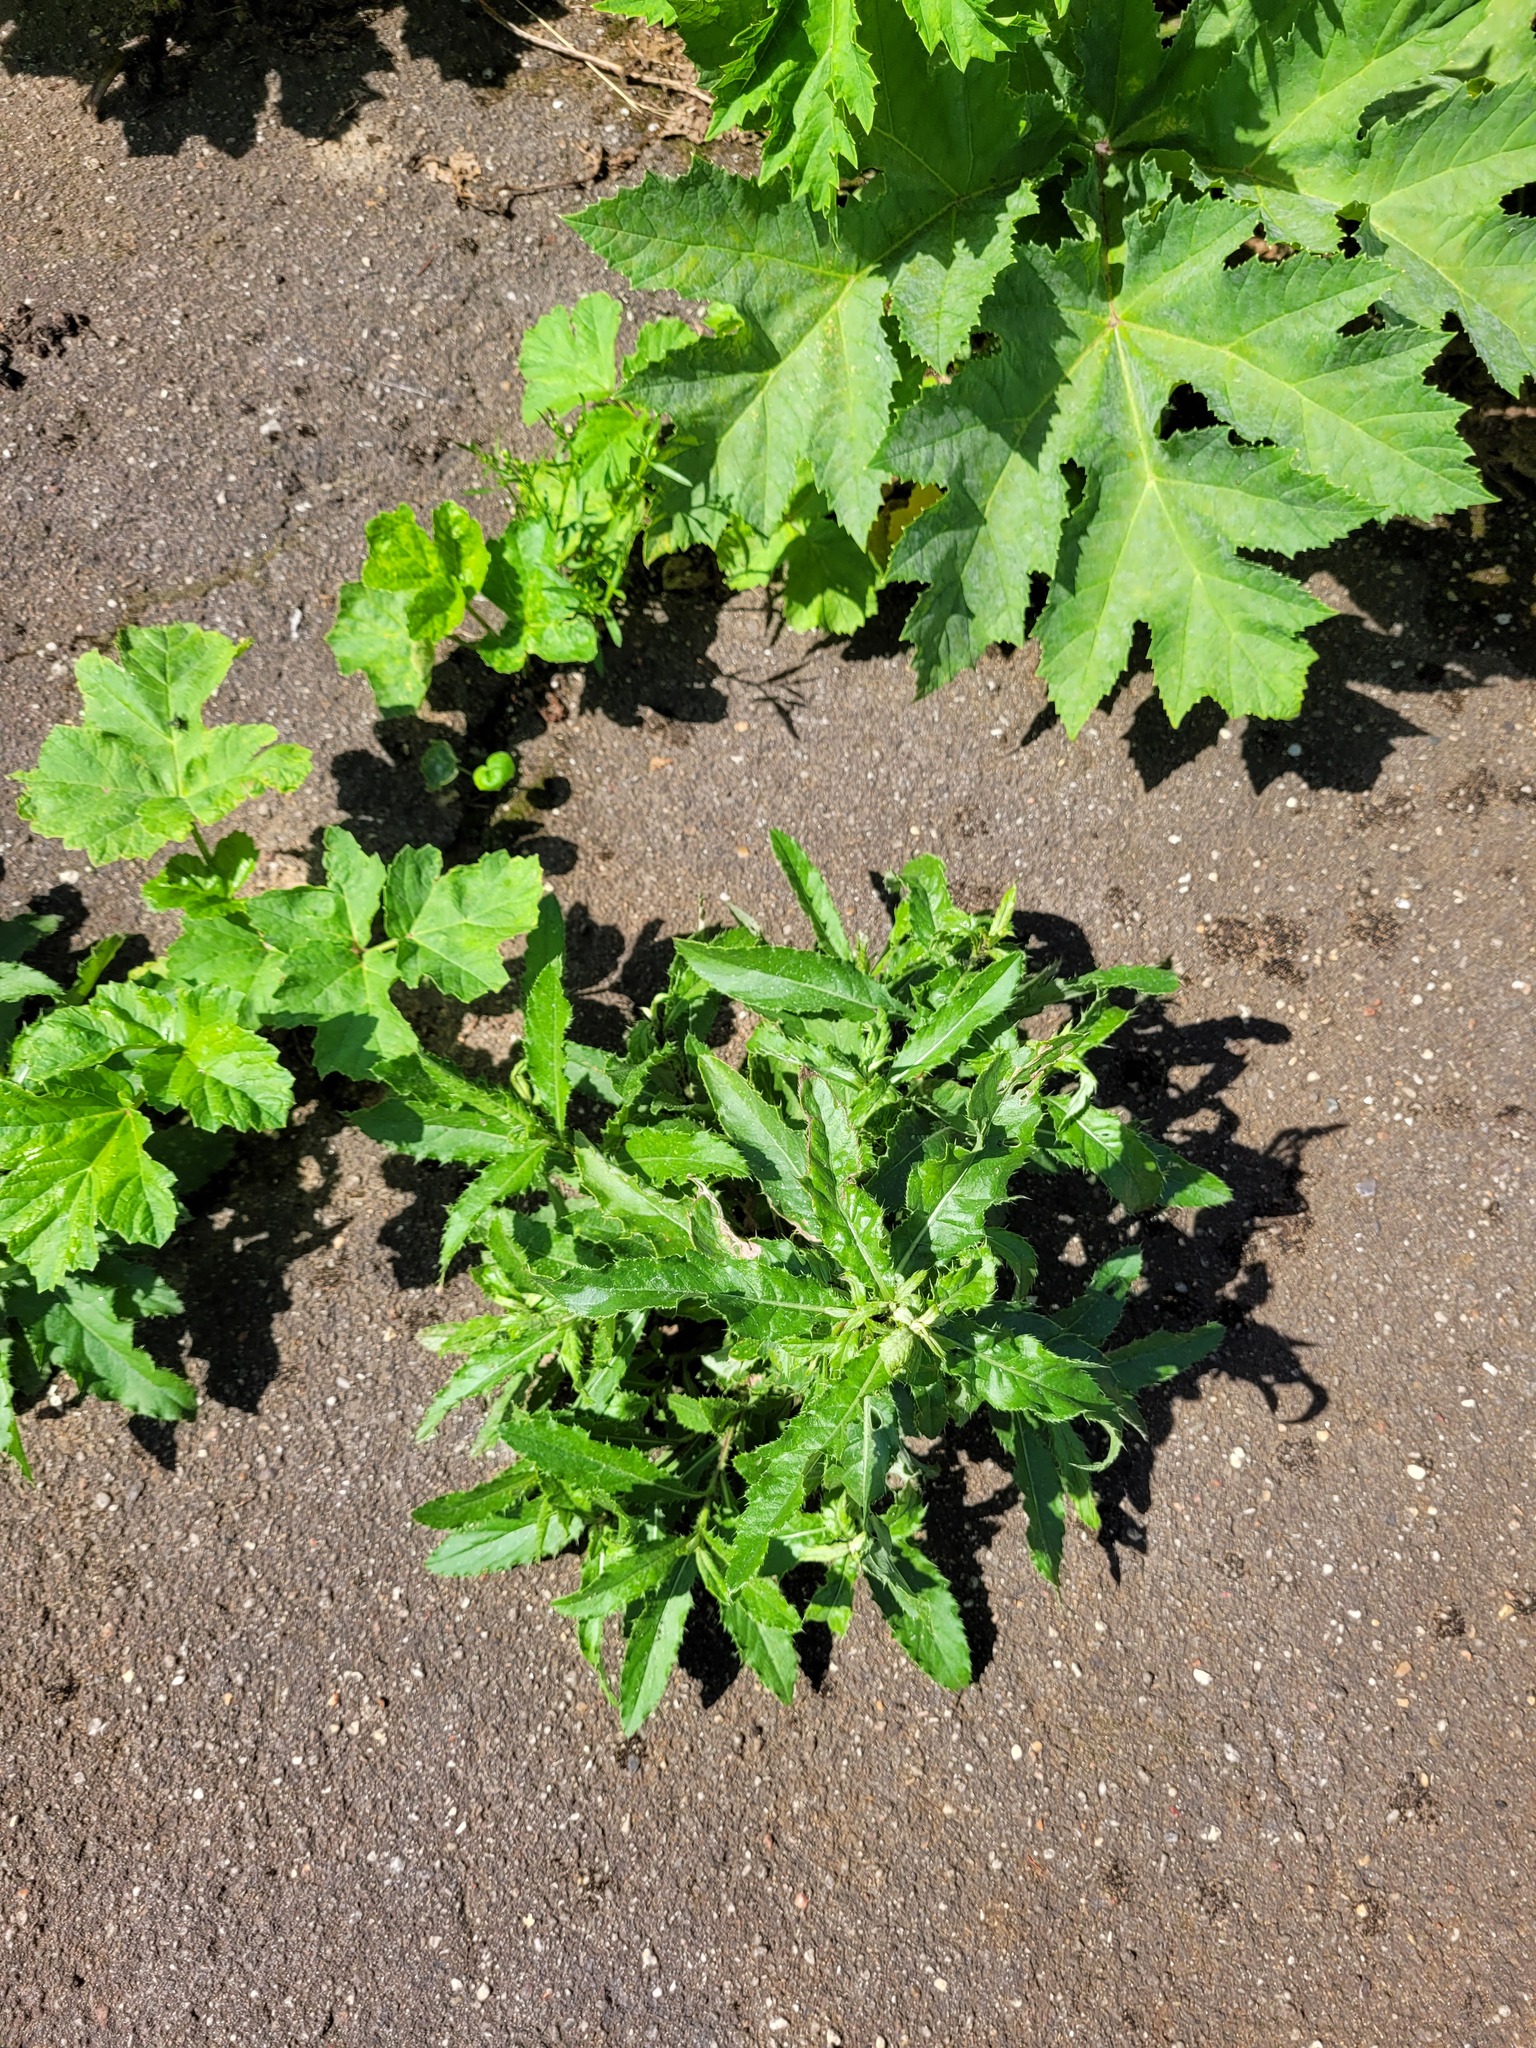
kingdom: Plantae
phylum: Tracheophyta
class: Magnoliopsida
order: Asterales
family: Asteraceae
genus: Cirsium
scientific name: Cirsium arvense
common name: Creeping thistle
